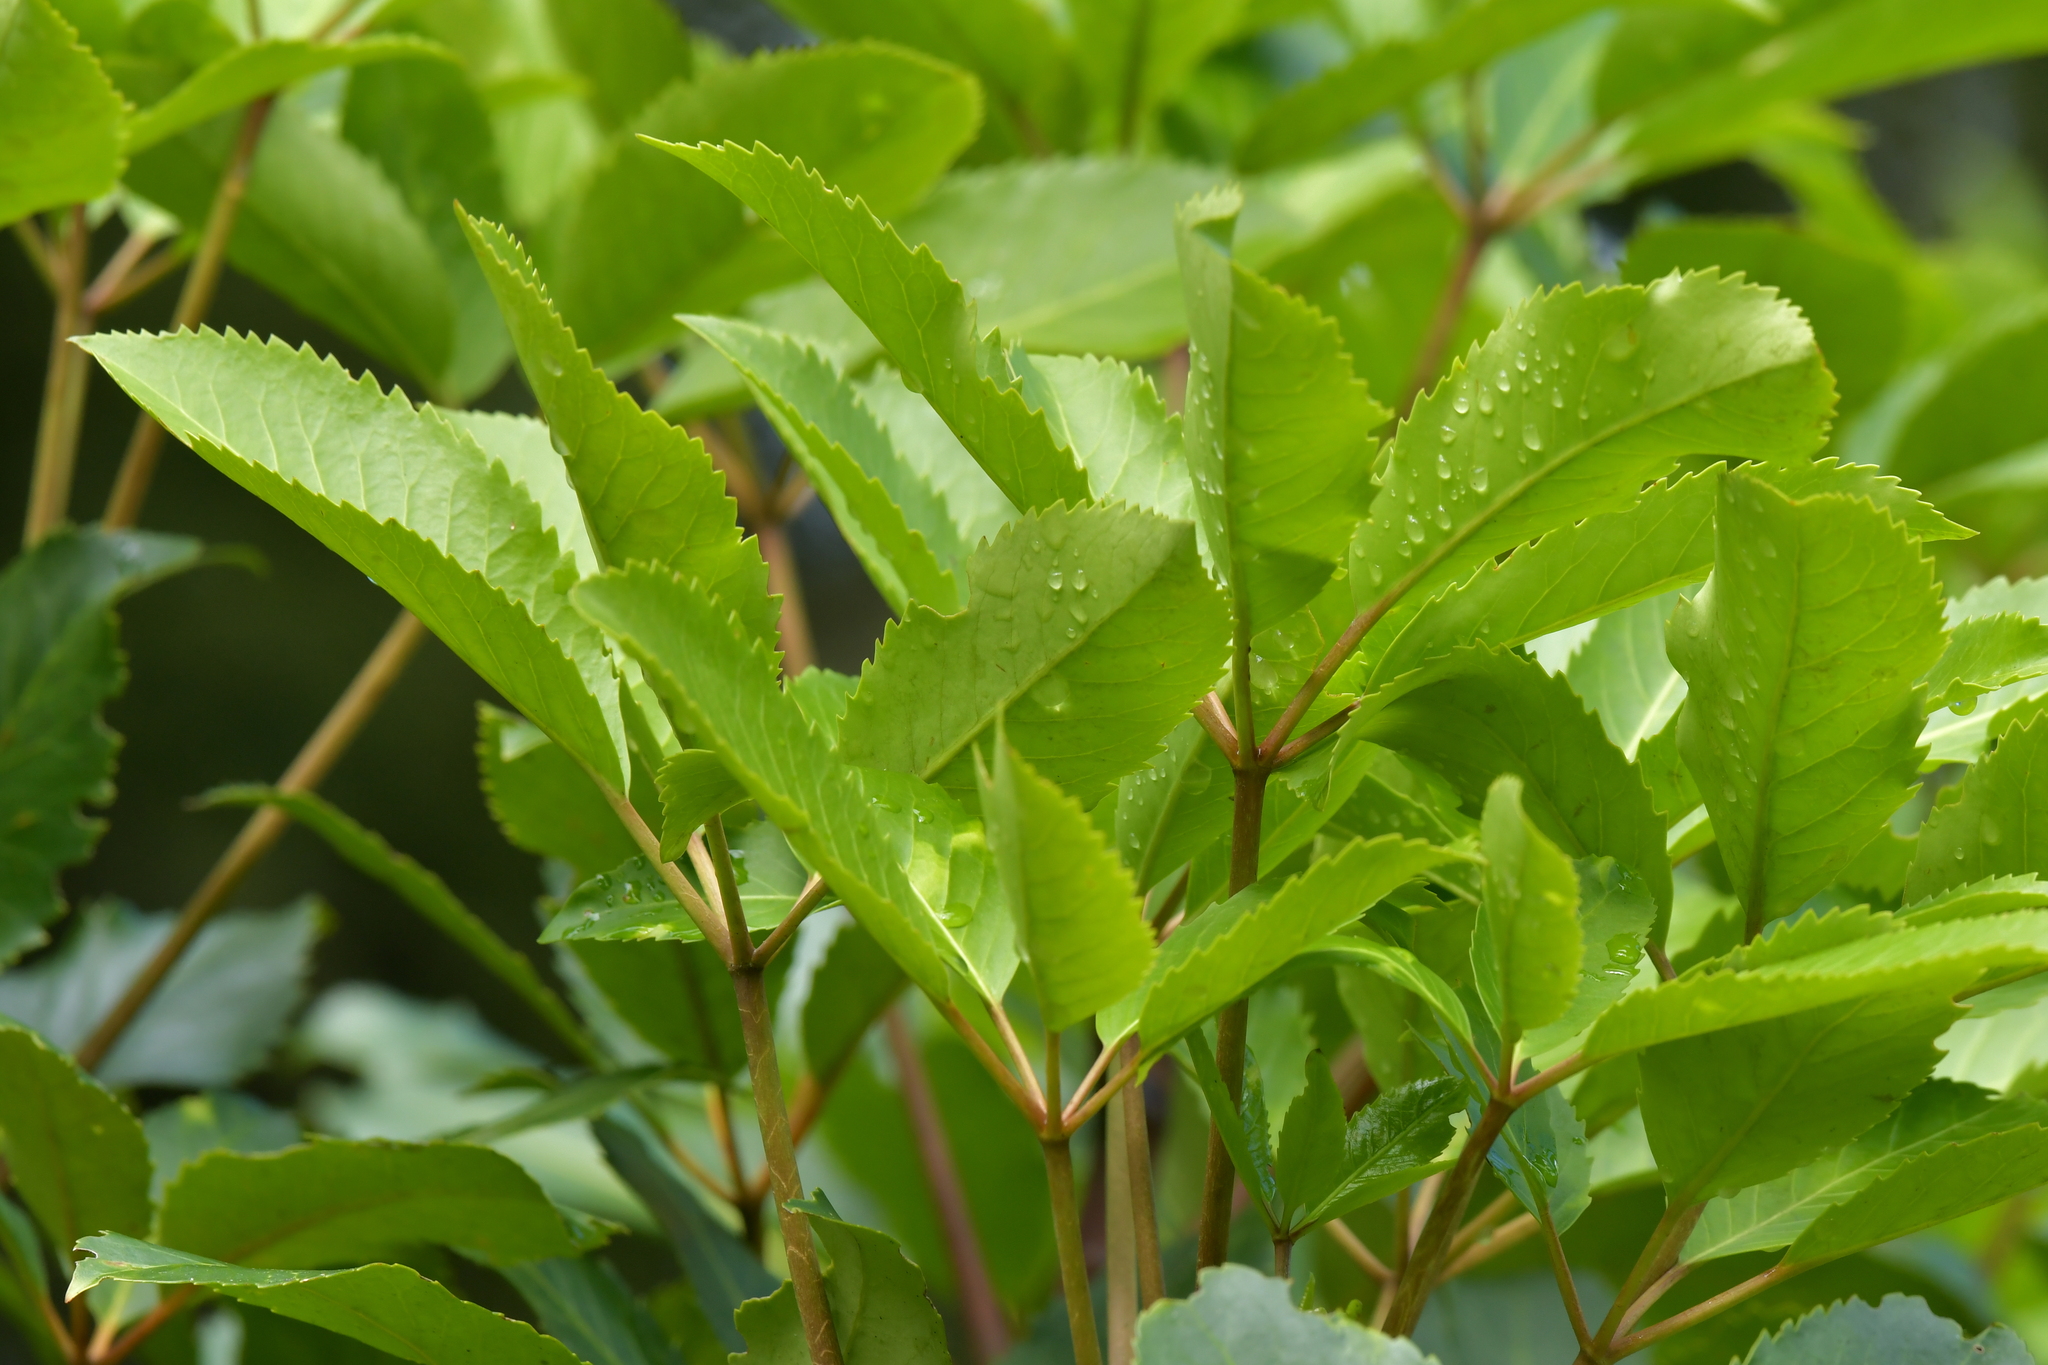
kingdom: Plantae
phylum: Tracheophyta
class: Magnoliopsida
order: Apiales
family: Araliaceae
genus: Neopanax
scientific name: Neopanax arboreus
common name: Five-fingers
